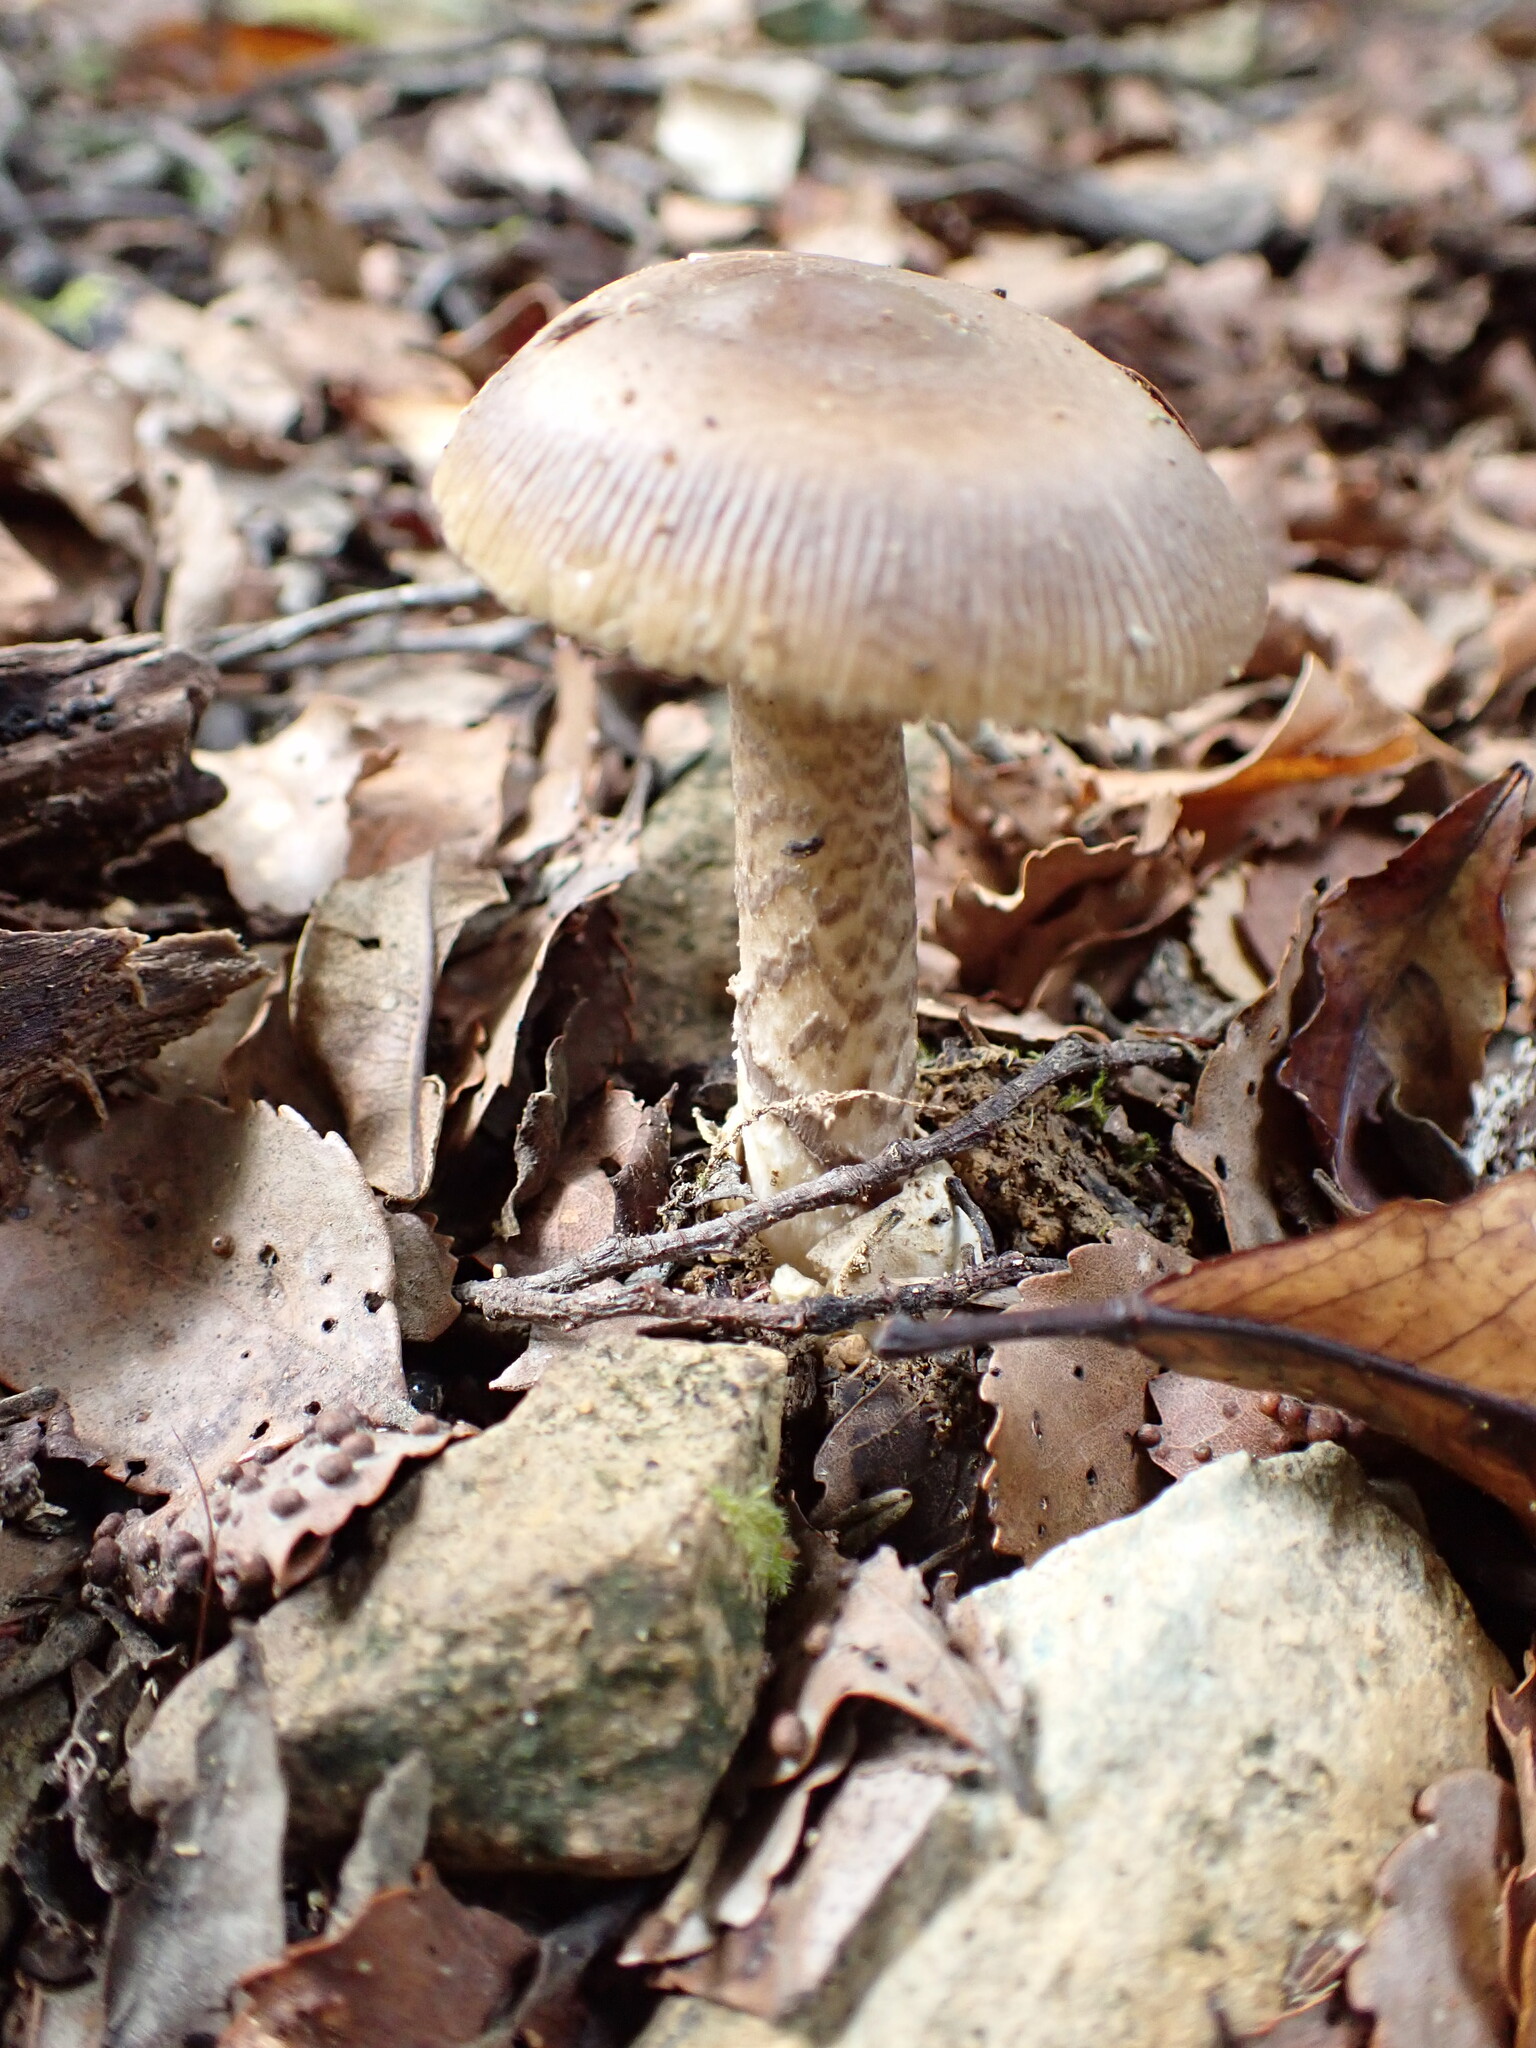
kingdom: Fungi
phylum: Basidiomycota
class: Agaricomycetes
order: Agaricales
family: Amanitaceae
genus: Amanita
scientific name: Amanita pekeoides
